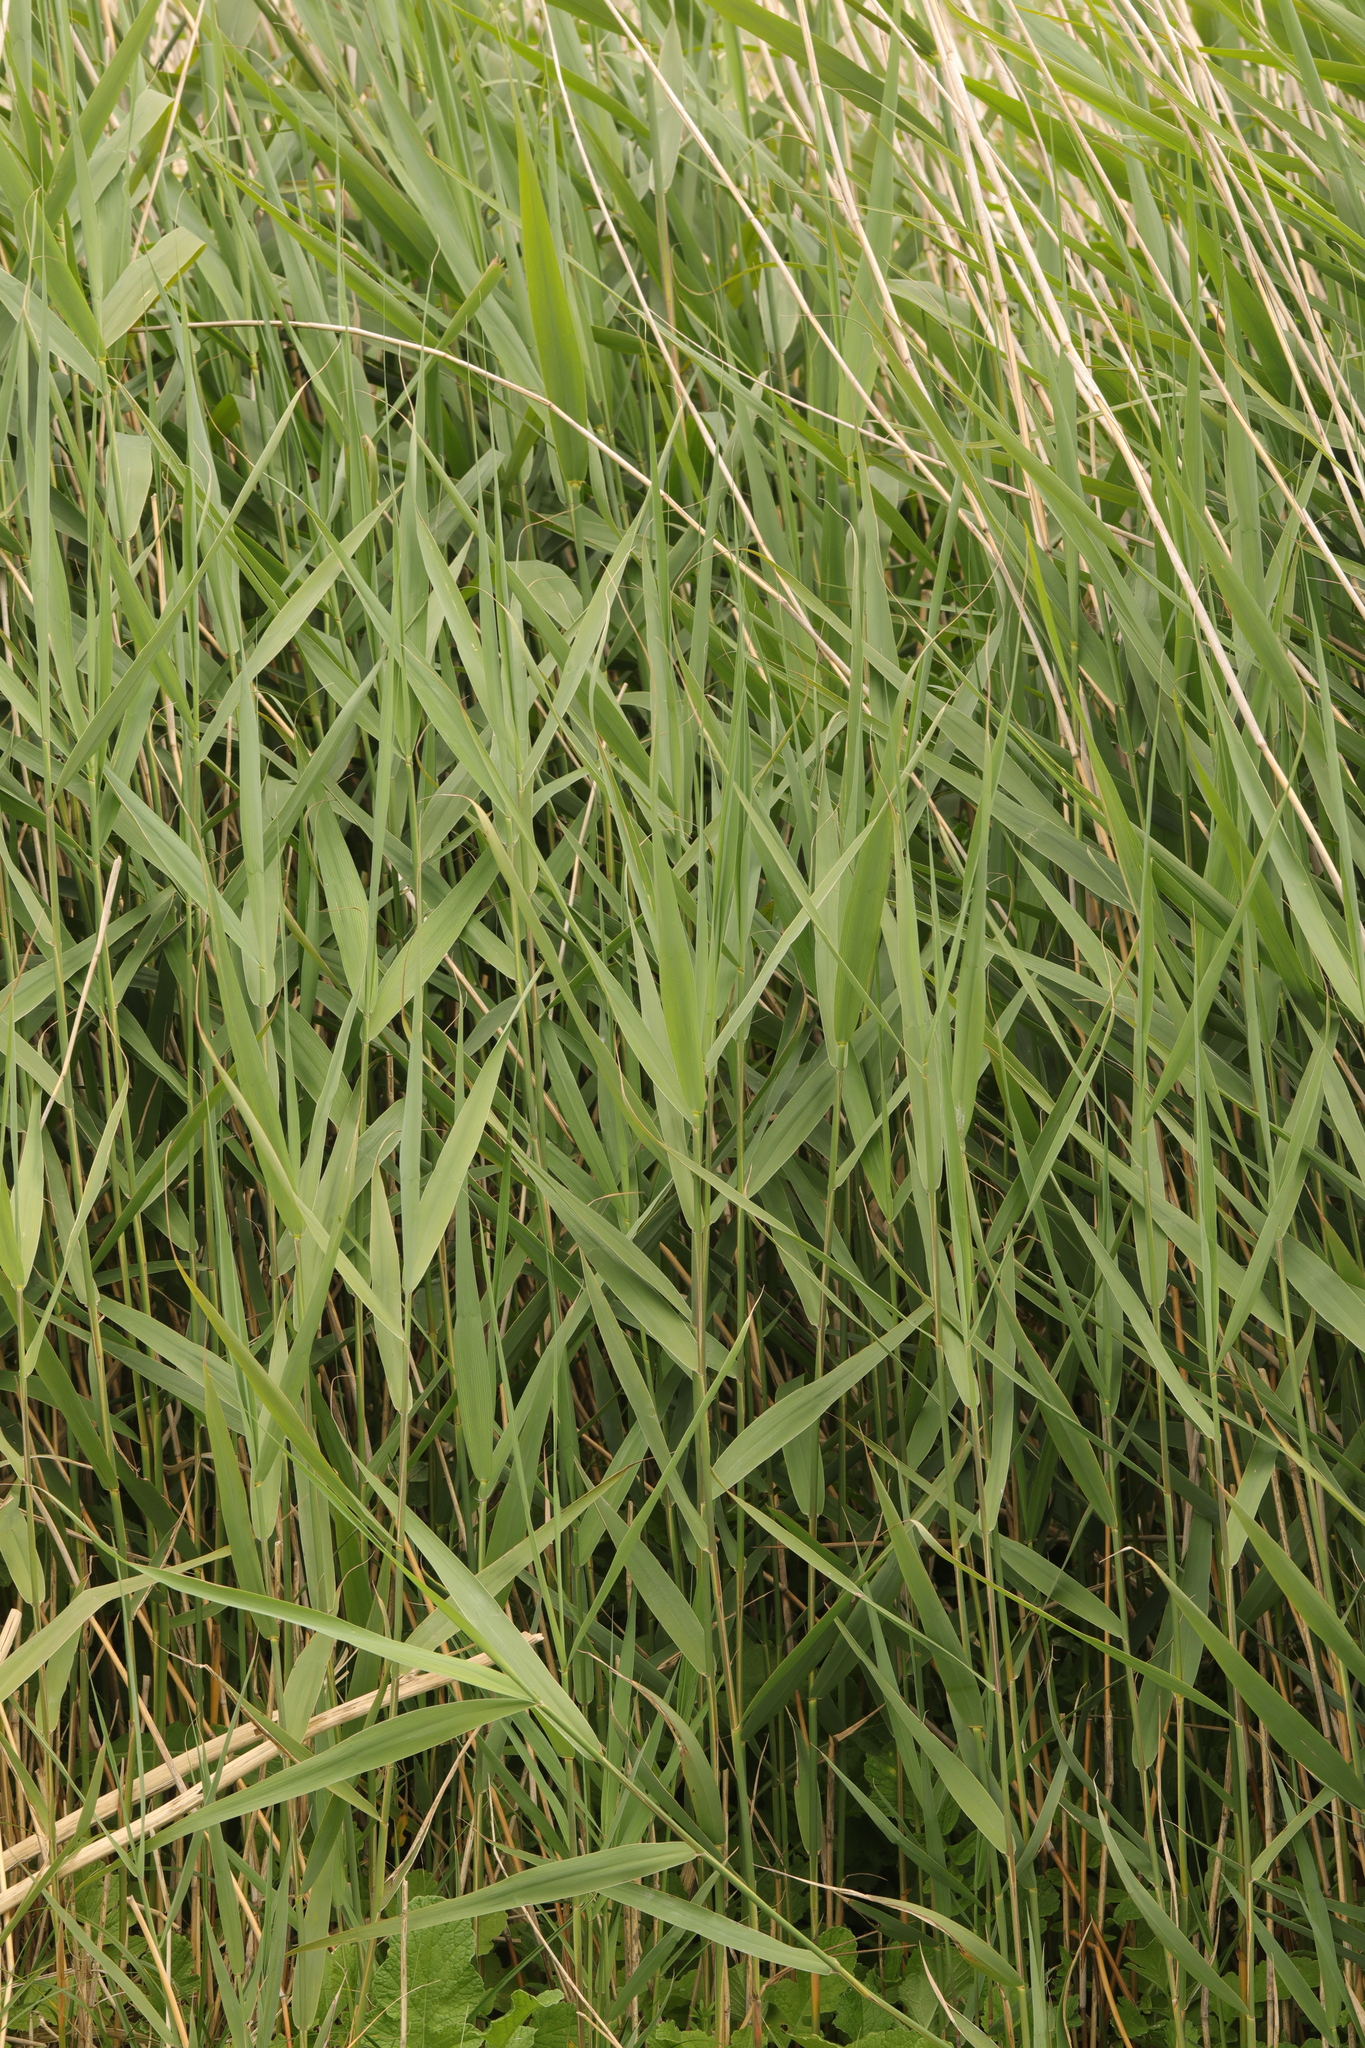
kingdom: Plantae
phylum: Tracheophyta
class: Liliopsida
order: Poales
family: Poaceae
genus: Phragmites
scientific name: Phragmites australis
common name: Common reed
